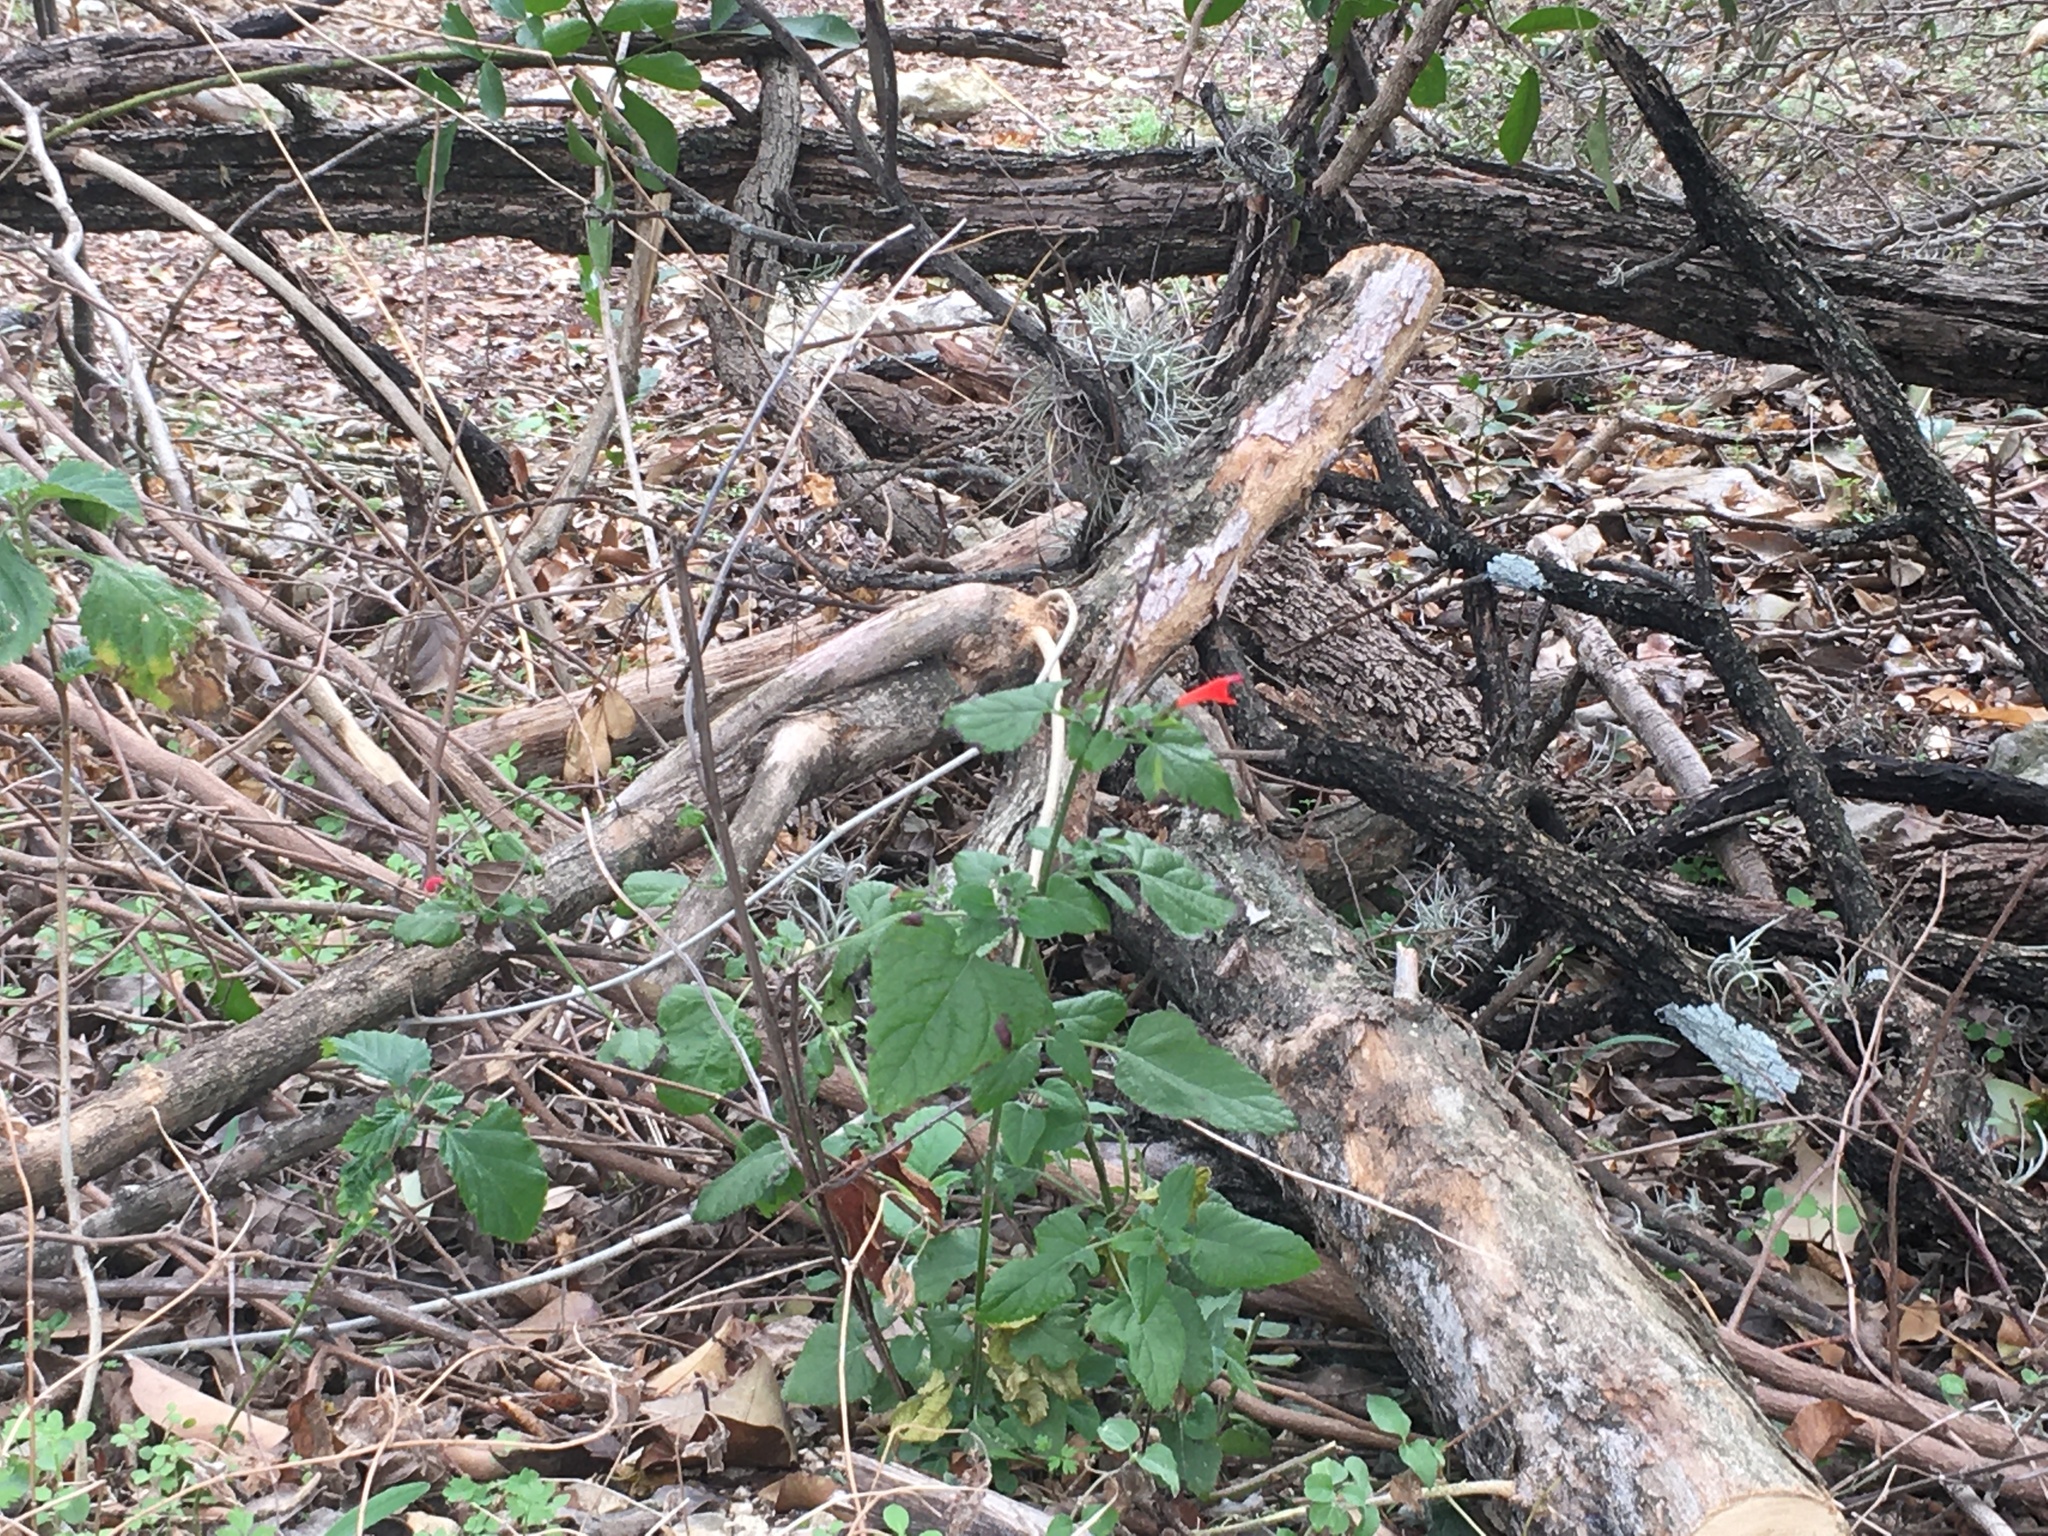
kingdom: Plantae
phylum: Tracheophyta
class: Magnoliopsida
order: Lamiales
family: Lamiaceae
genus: Salvia
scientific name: Salvia coccinea
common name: Blood sage
